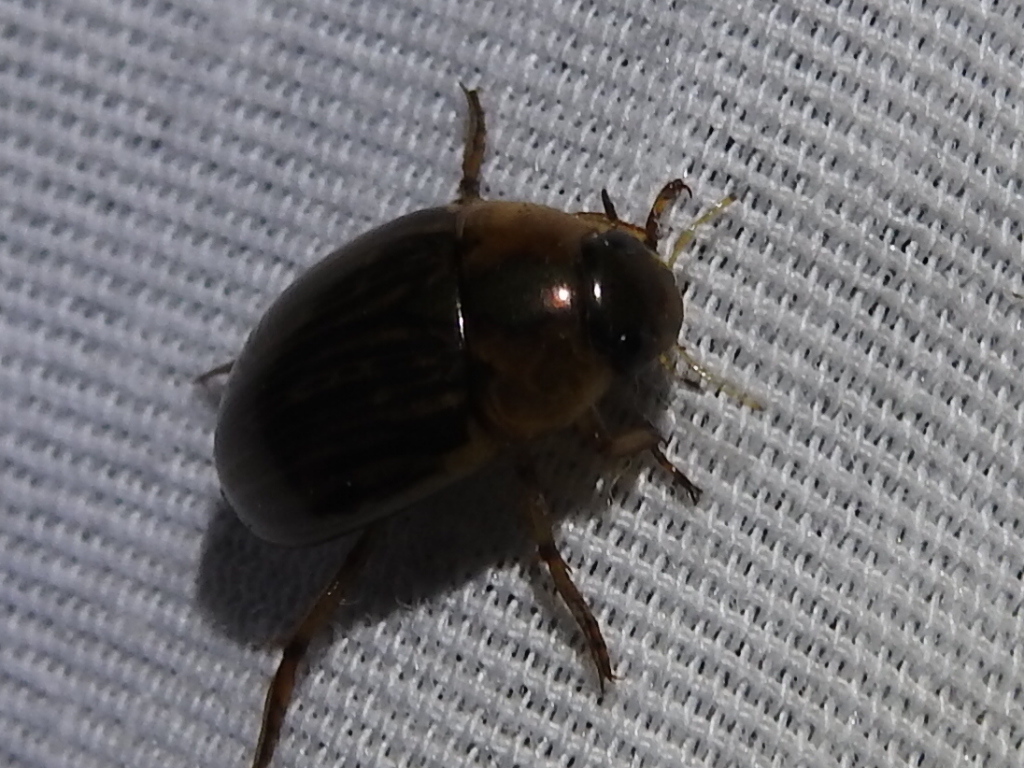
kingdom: Animalia
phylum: Arthropoda
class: Insecta
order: Coleoptera
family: Hydrophilidae
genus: Tropisternus
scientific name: Tropisternus collaris
